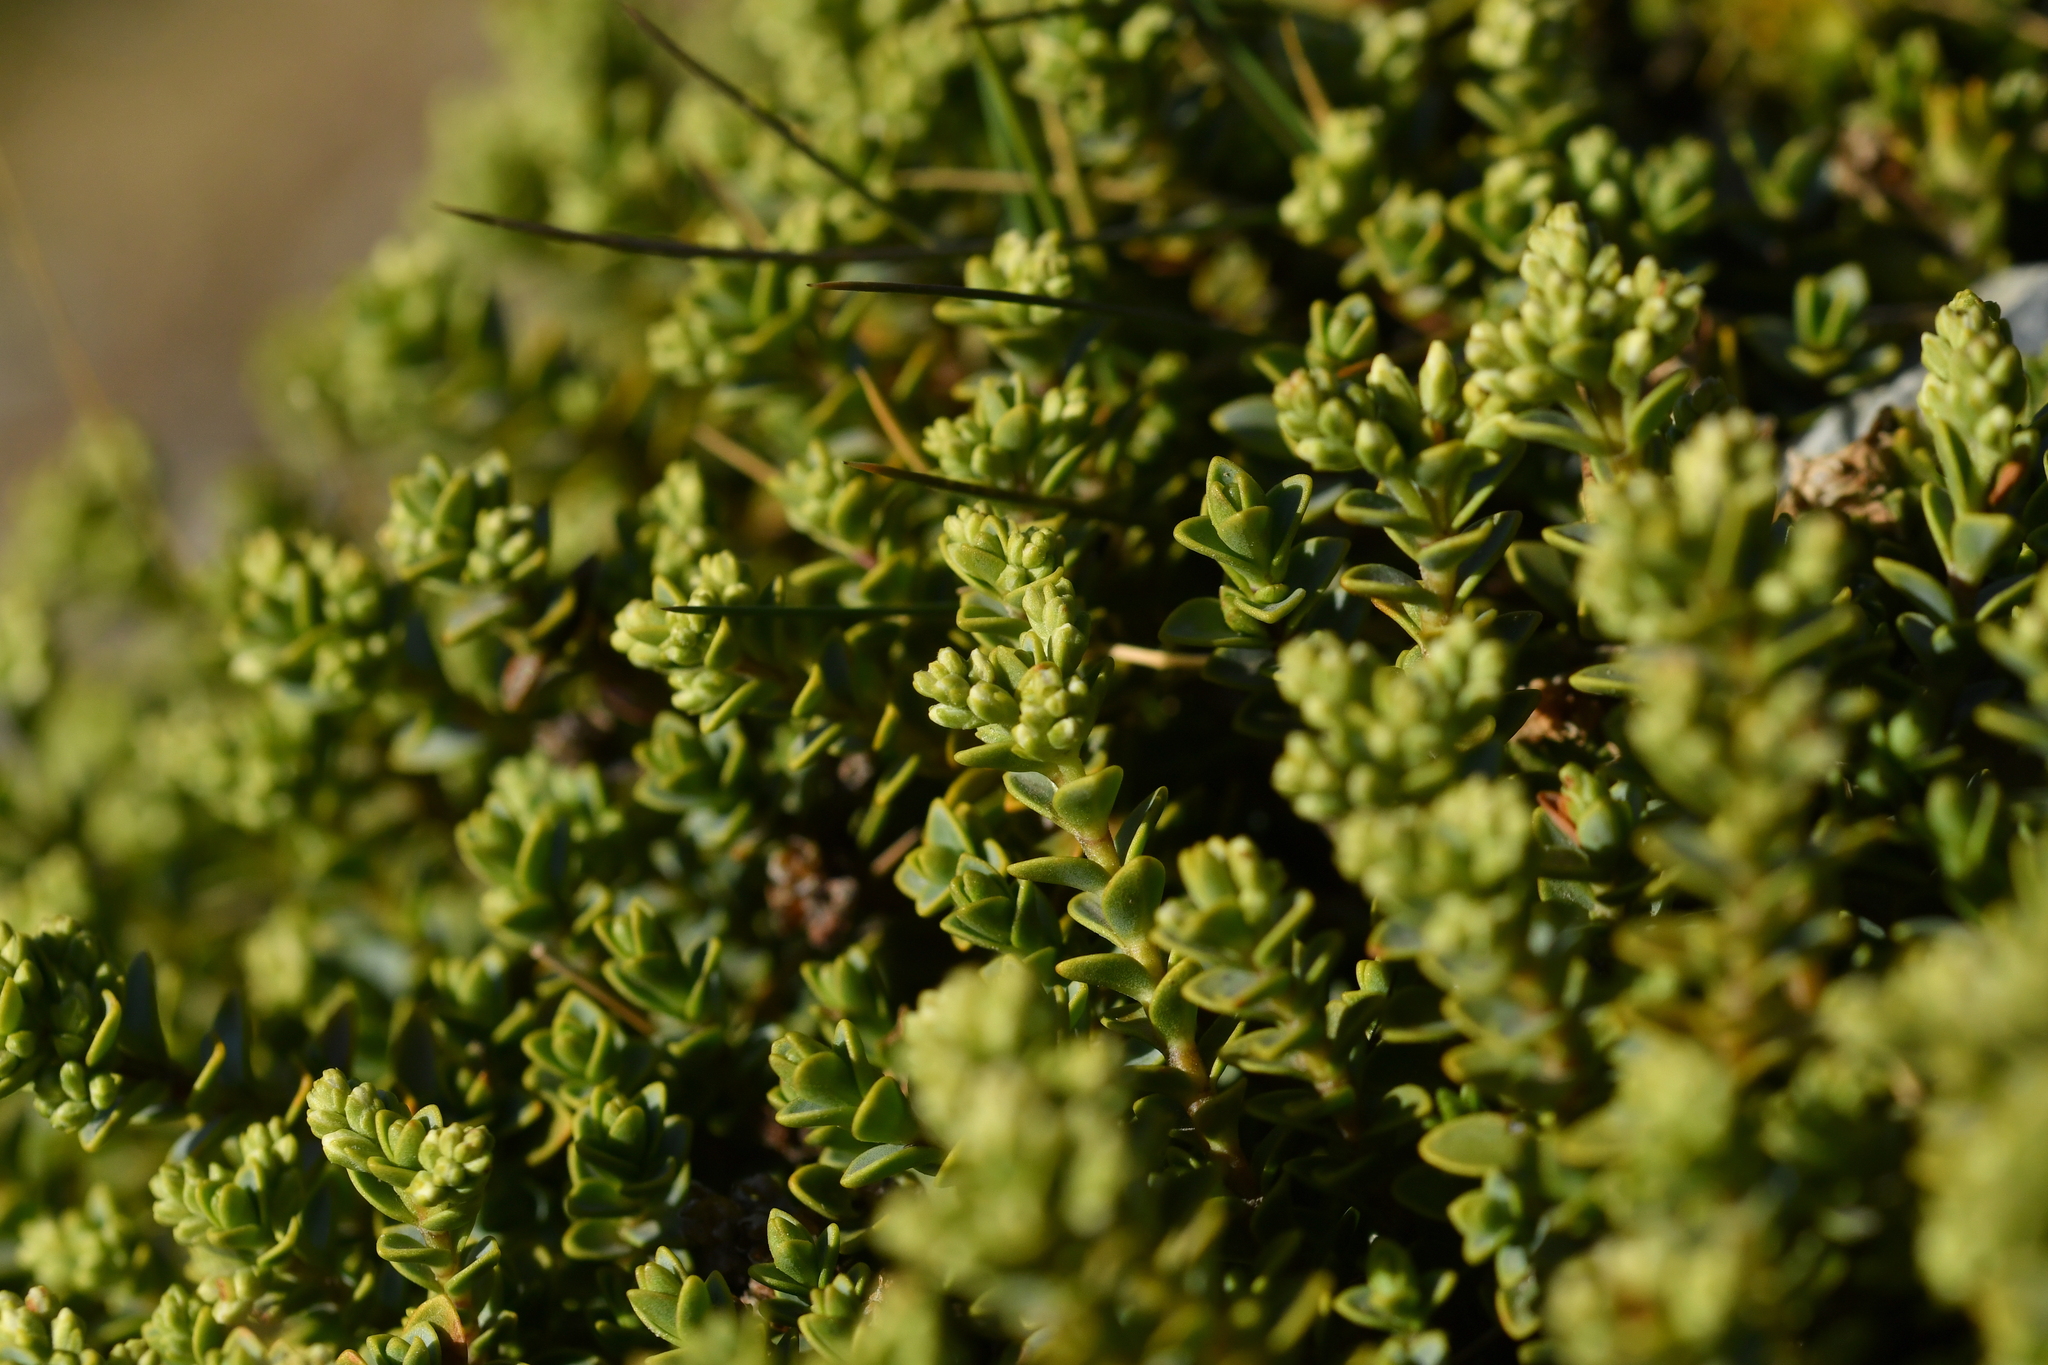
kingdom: Plantae
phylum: Tracheophyta
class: Magnoliopsida
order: Lamiales
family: Plantaginaceae
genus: Veronica
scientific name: Veronica buchananii
